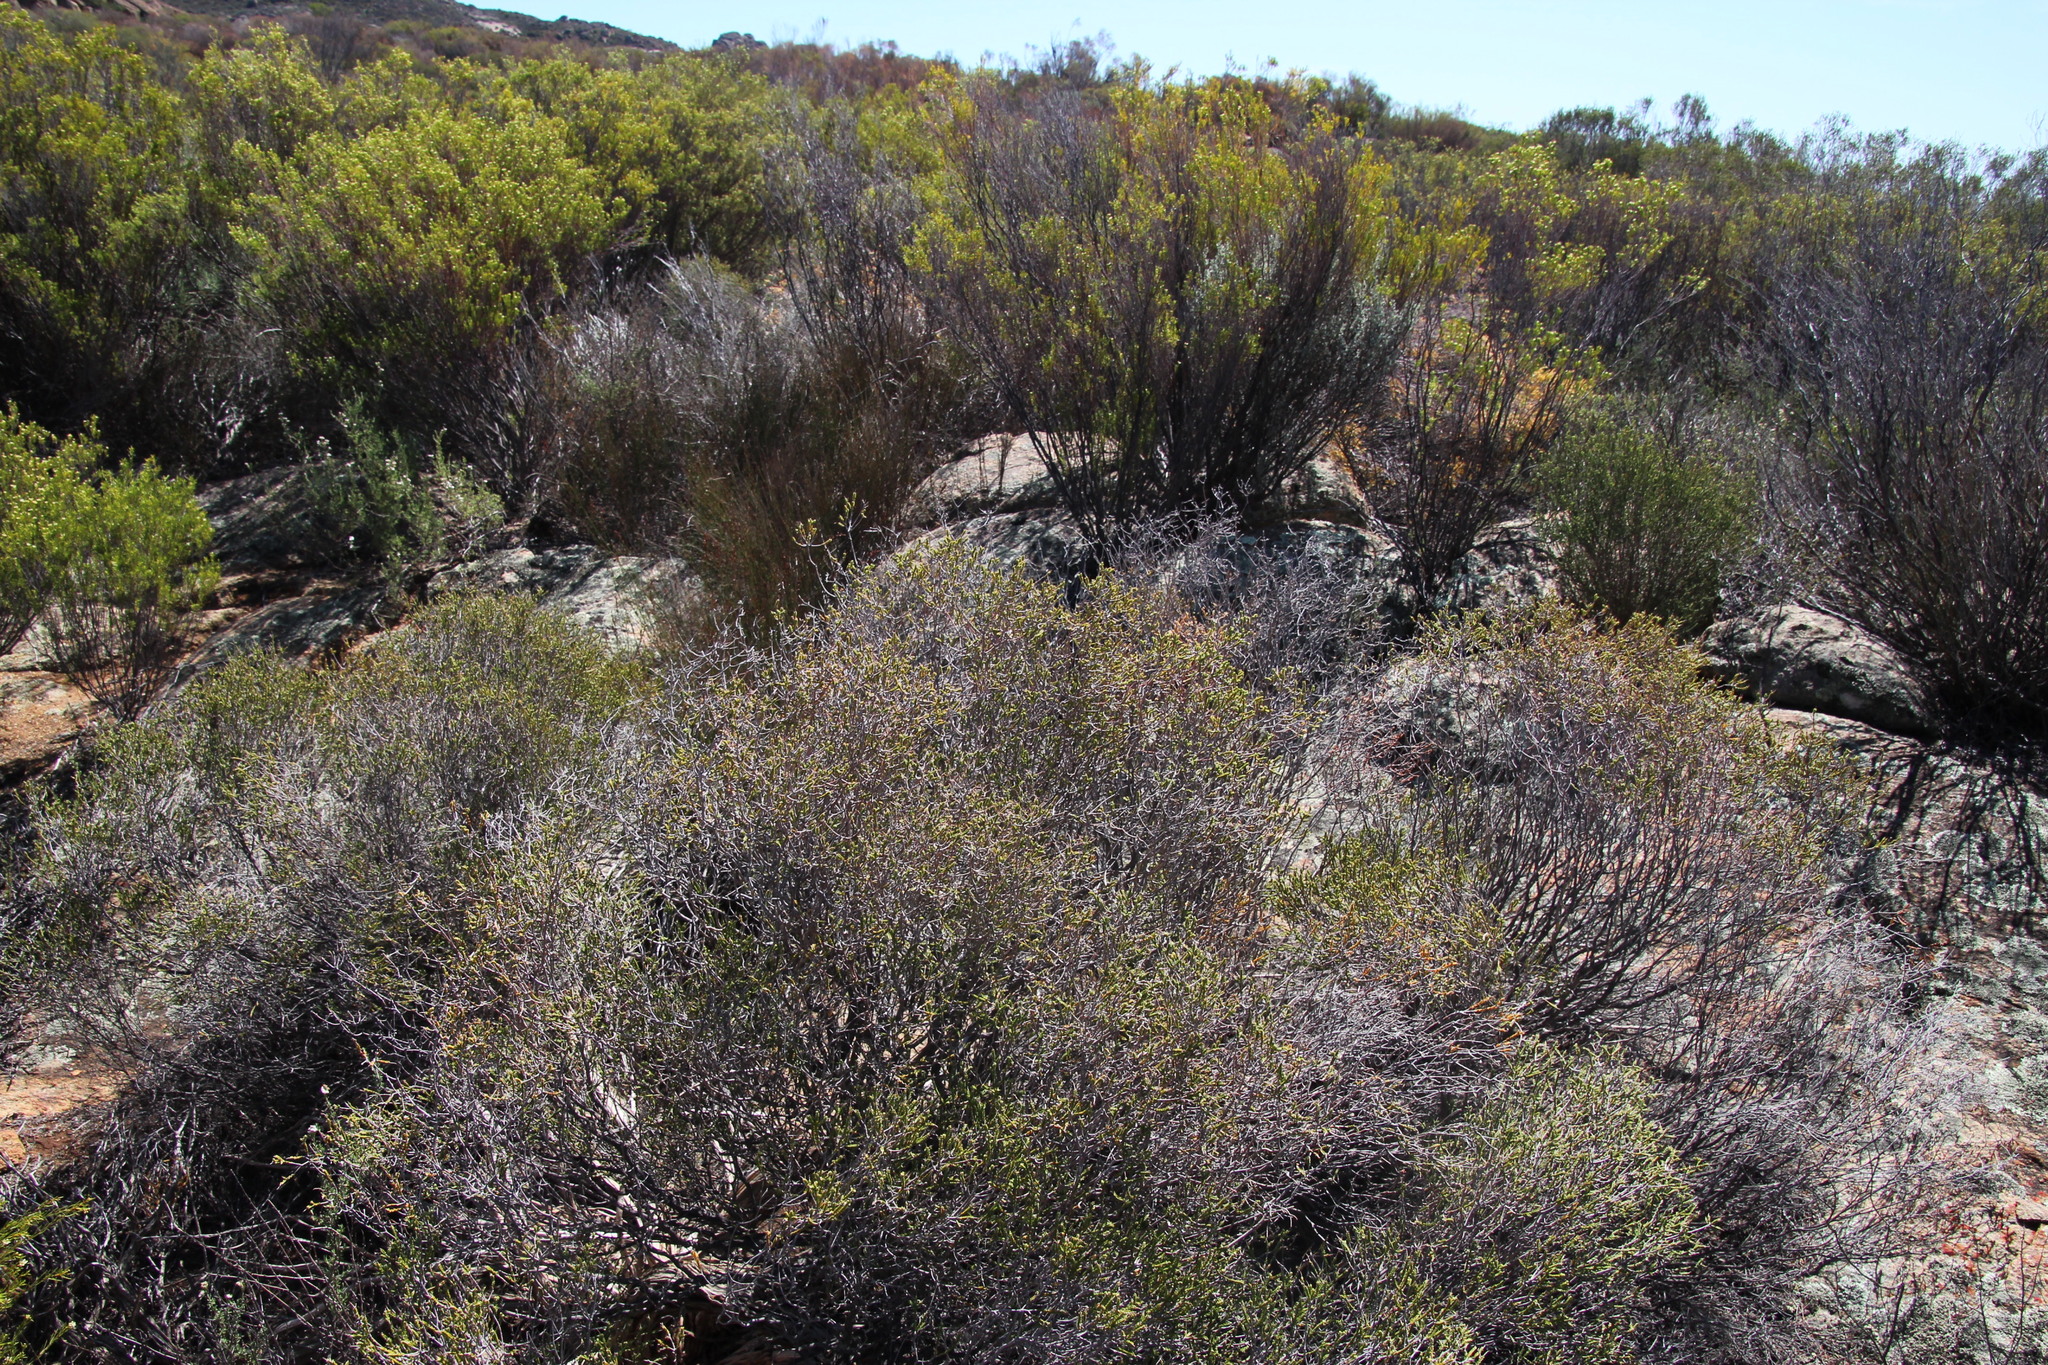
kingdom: Plantae
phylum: Tracheophyta
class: Magnoliopsida
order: Malvales
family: Thymelaeaceae
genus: Passerina
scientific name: Passerina truncata
